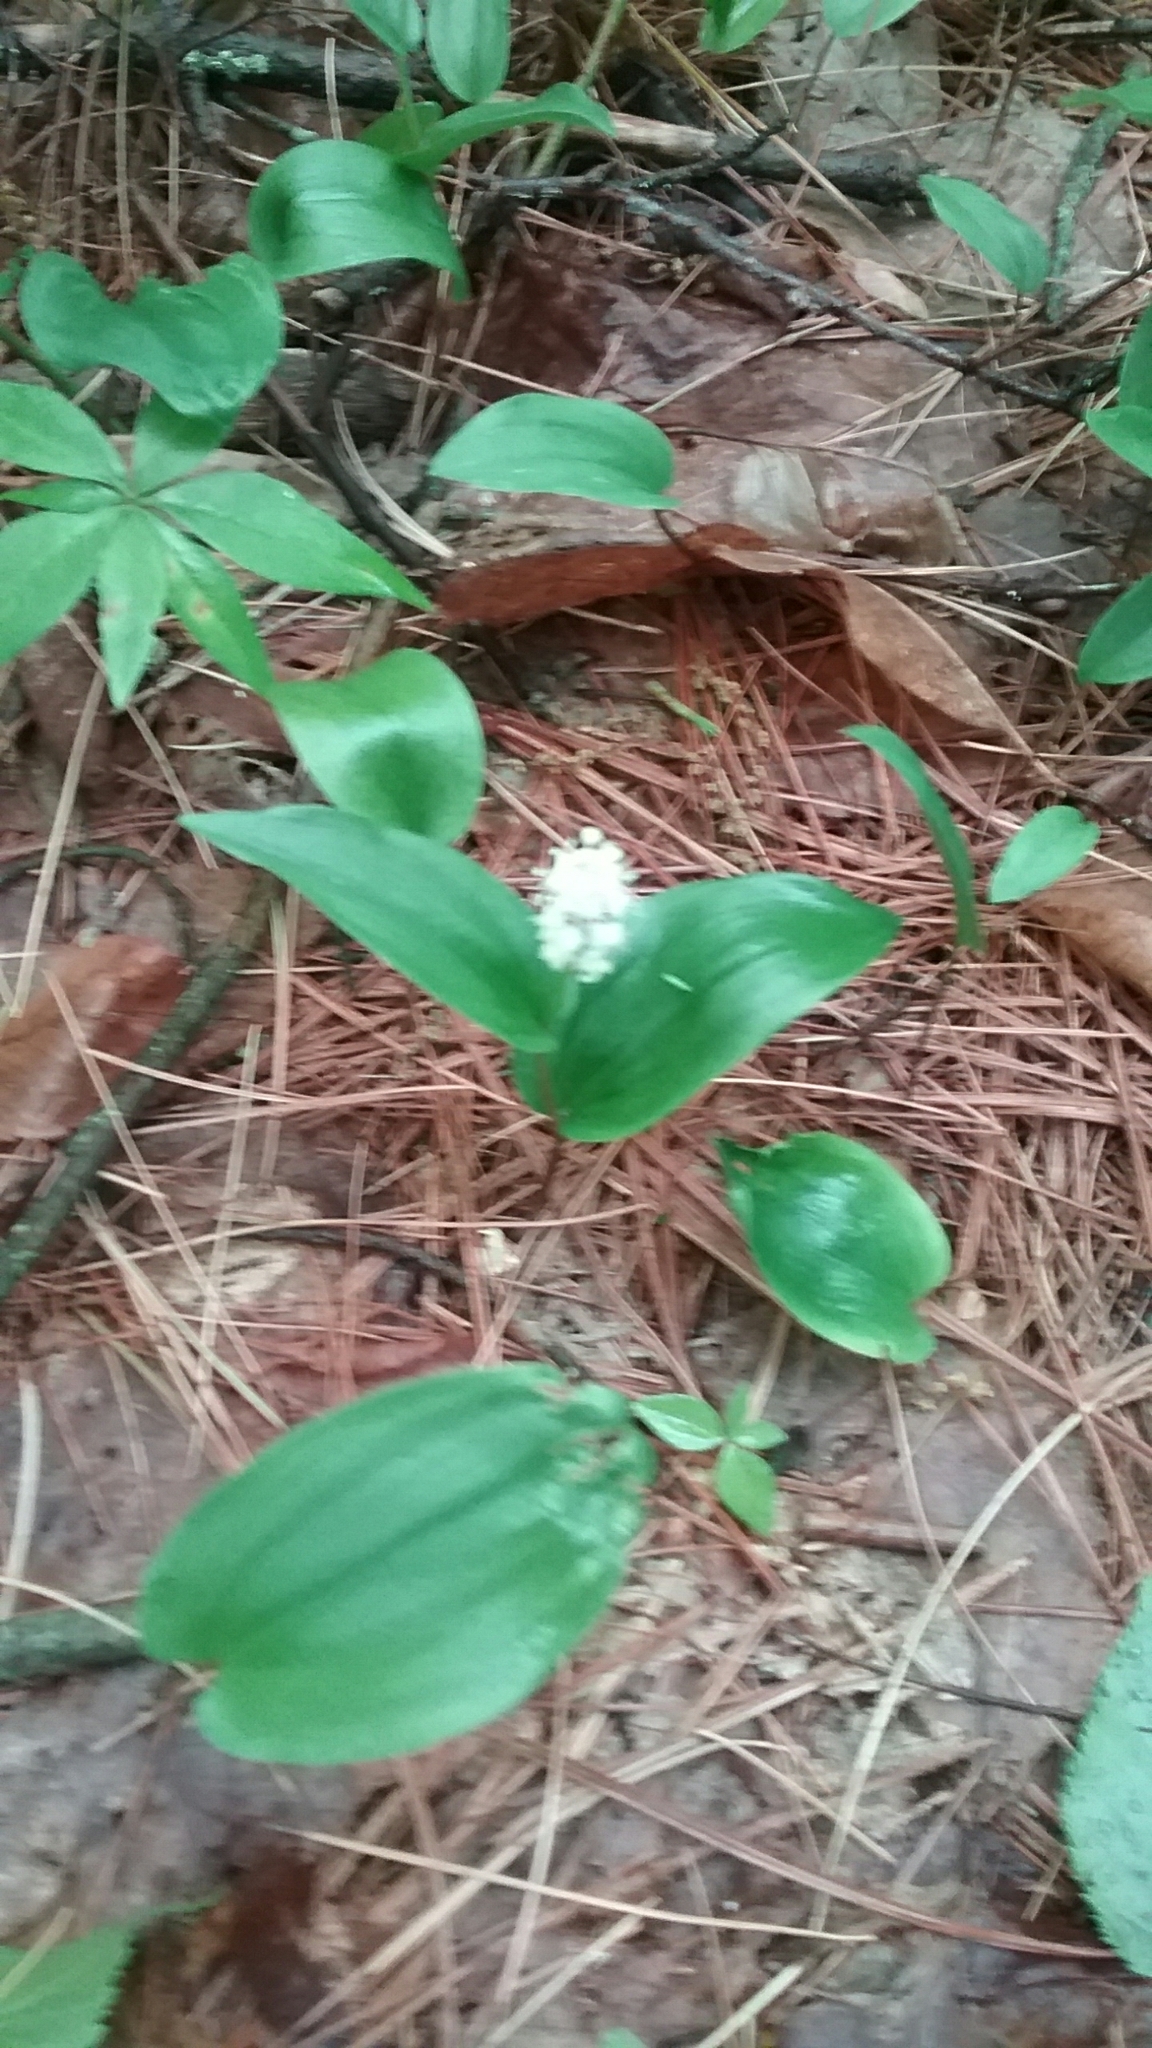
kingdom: Plantae
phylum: Tracheophyta
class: Liliopsida
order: Asparagales
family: Asparagaceae
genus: Maianthemum
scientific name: Maianthemum canadense
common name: False lily-of-the-valley
